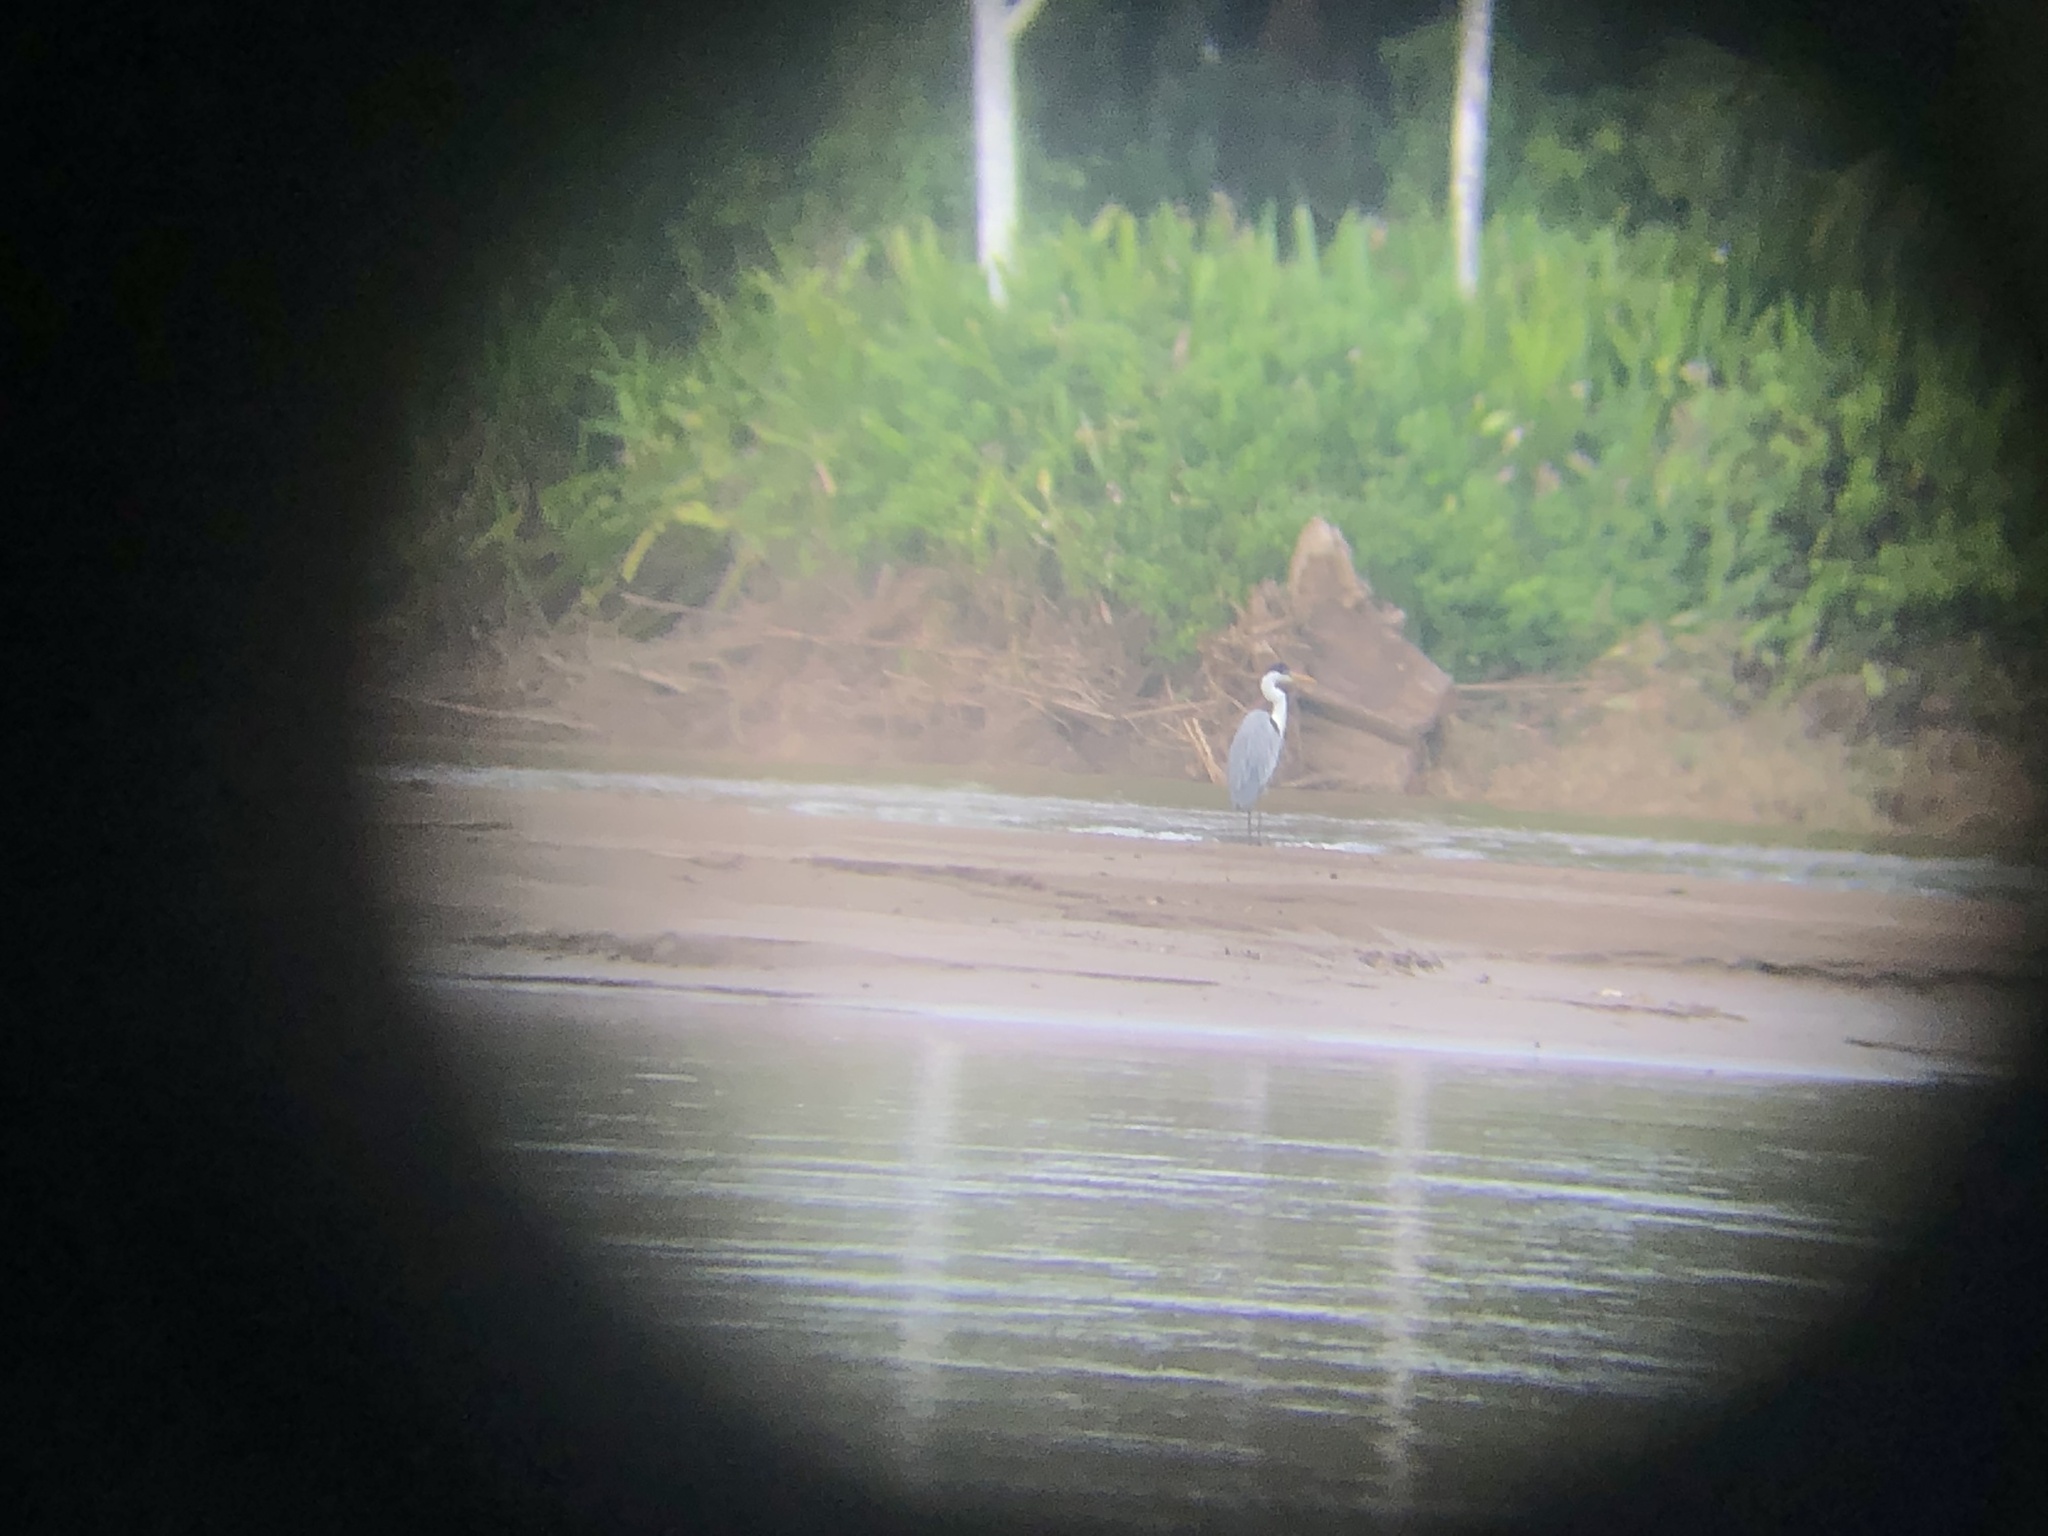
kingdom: Animalia
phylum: Chordata
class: Aves
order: Pelecaniformes
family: Ardeidae
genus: Ardea
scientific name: Ardea cocoi
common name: Cocoi heron
